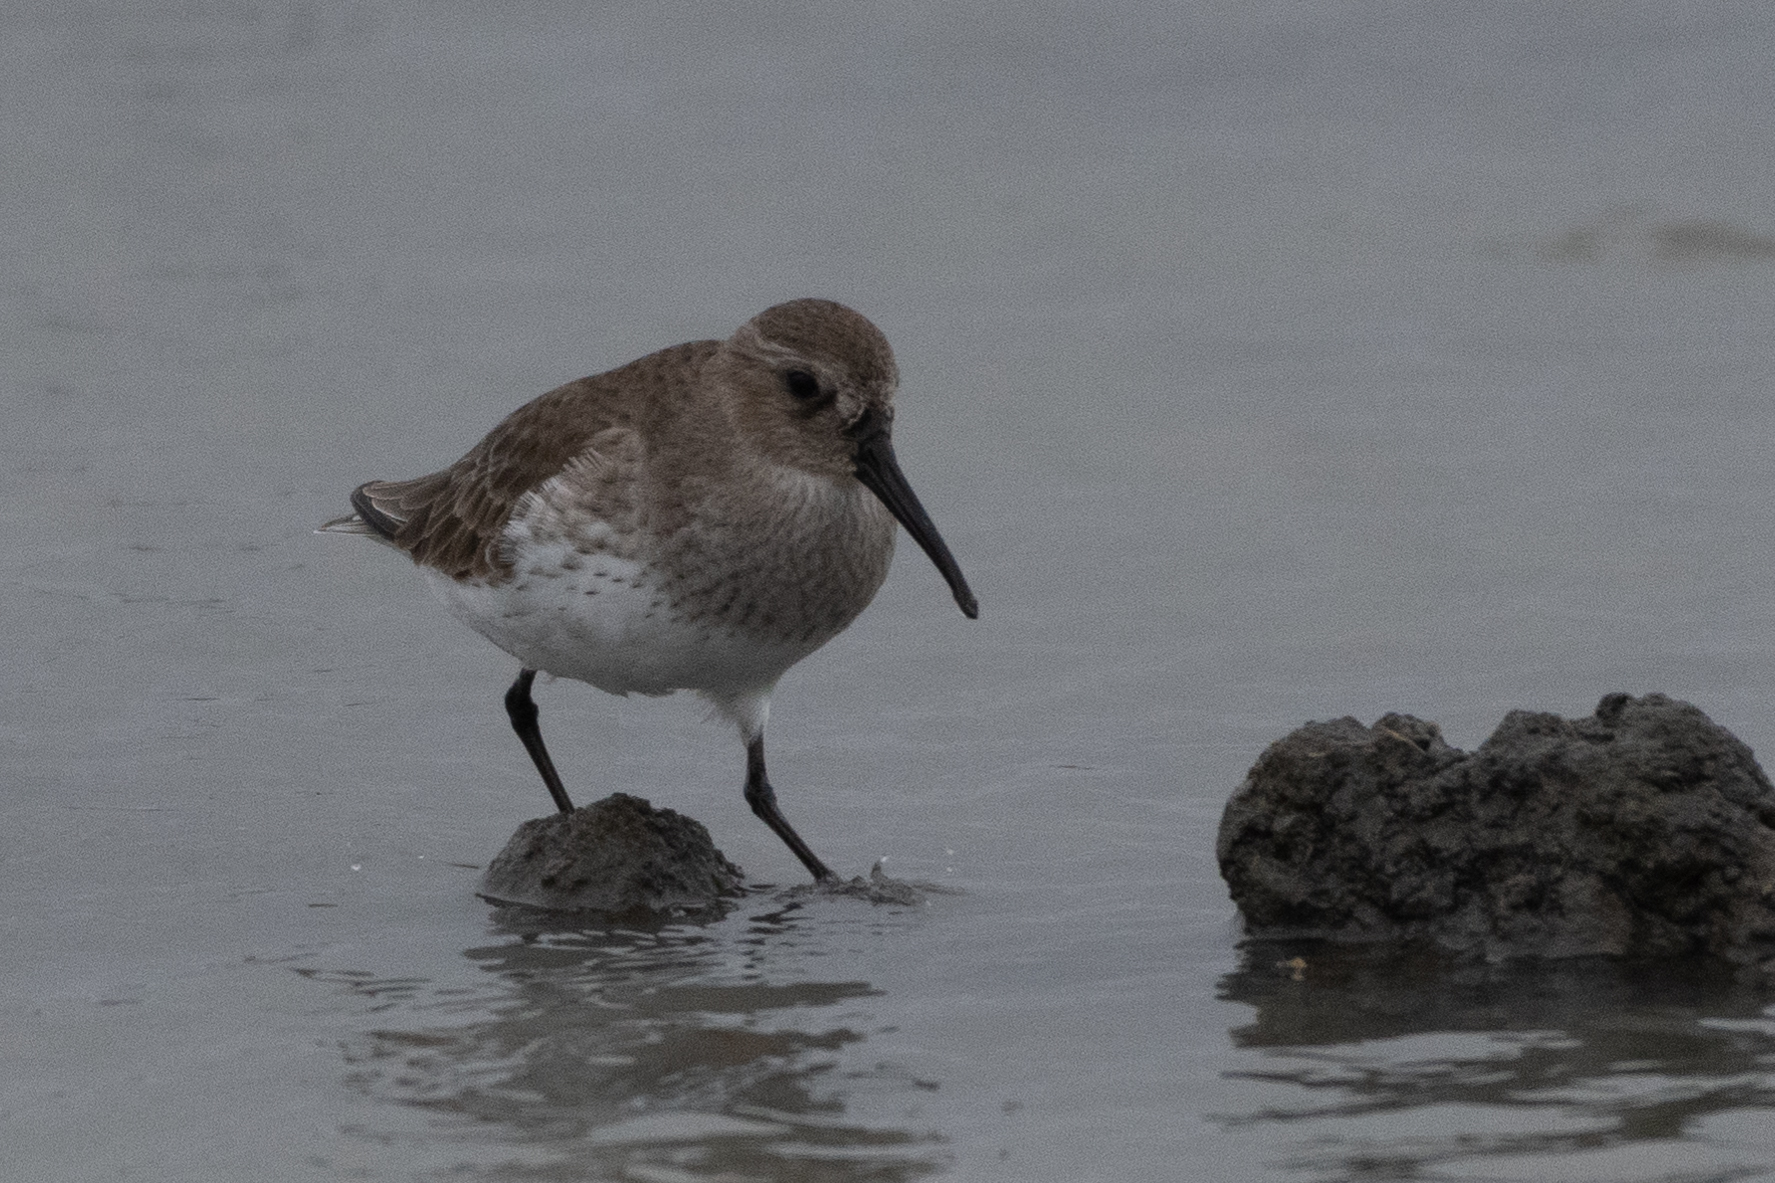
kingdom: Animalia
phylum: Chordata
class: Aves
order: Charadriiformes
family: Scolopacidae
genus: Calidris
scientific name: Calidris alpina
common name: Dunlin
